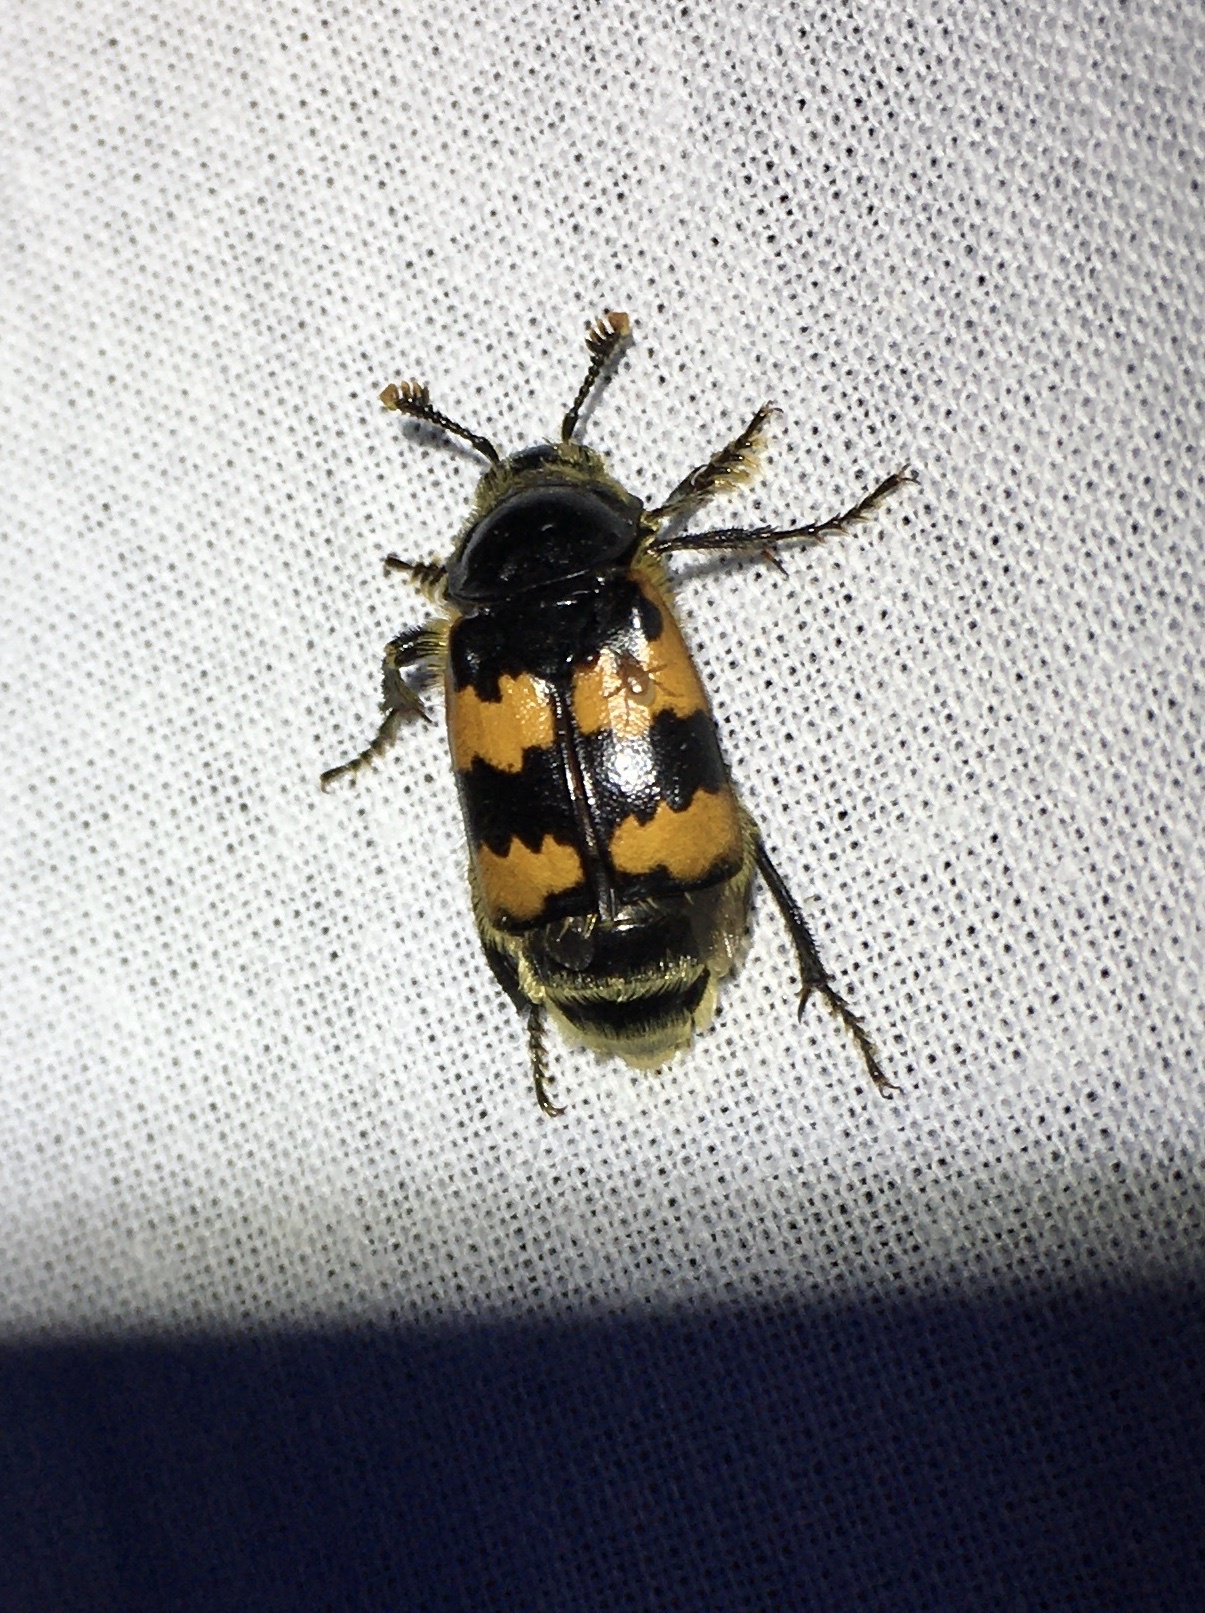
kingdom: Animalia
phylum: Arthropoda
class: Insecta
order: Coleoptera
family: Staphylinidae
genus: Nicrophorus
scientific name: Nicrophorus vespillo
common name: Common burying beetle
